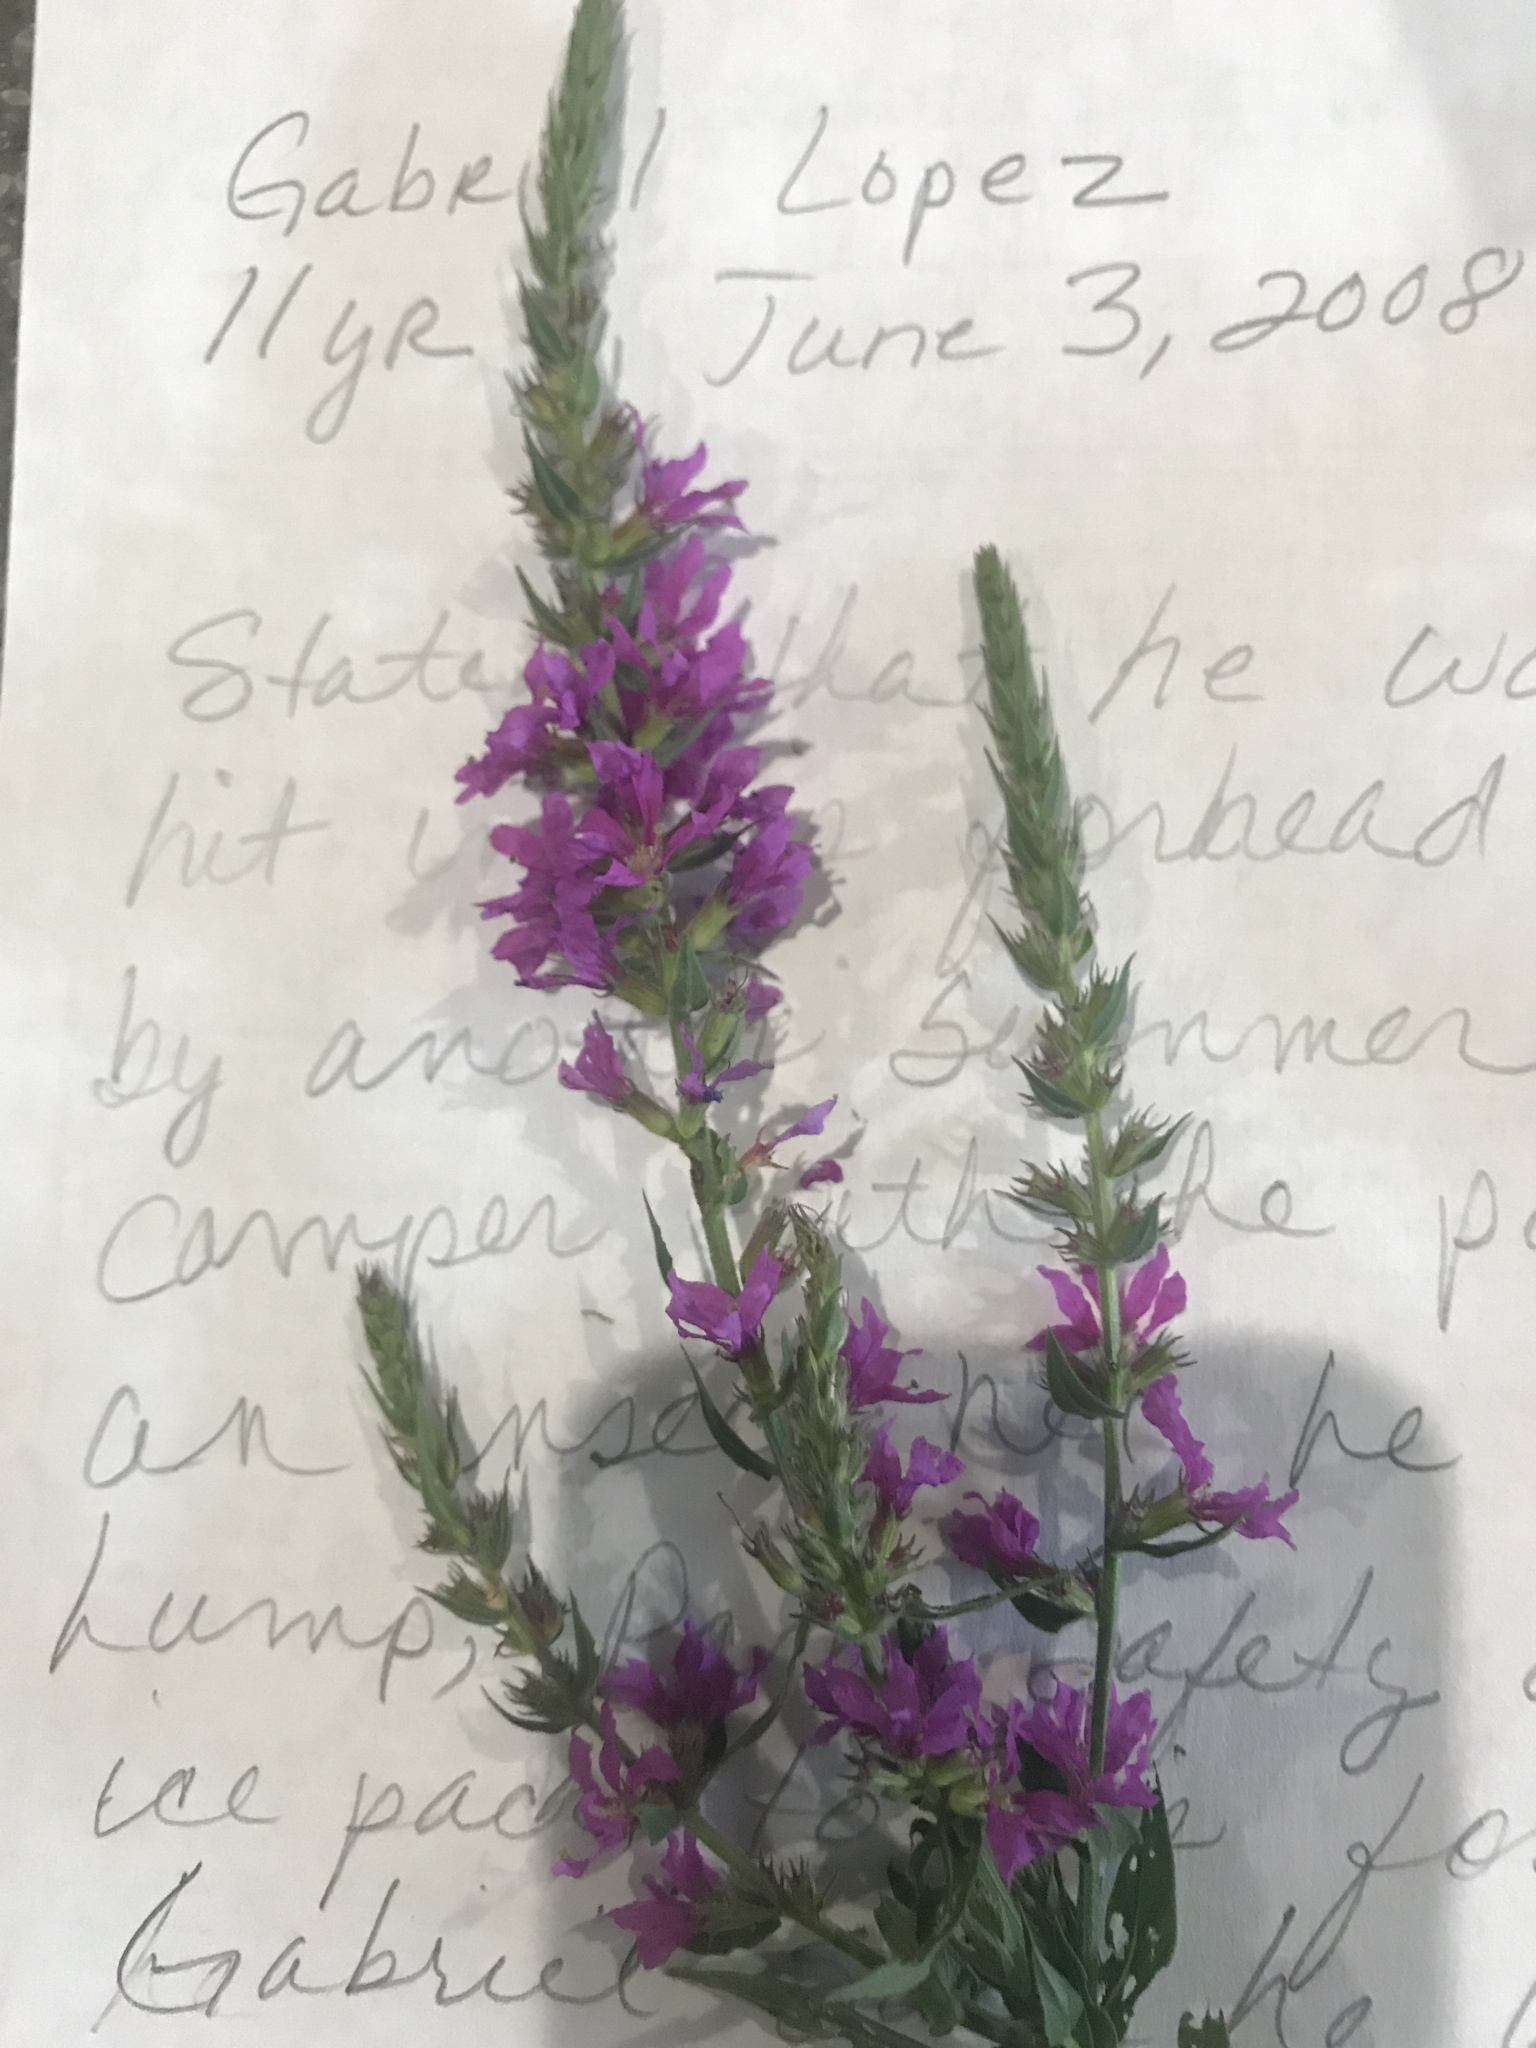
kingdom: Plantae
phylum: Tracheophyta
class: Magnoliopsida
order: Myrtales
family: Lythraceae
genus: Lythrum
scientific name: Lythrum salicaria
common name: Purple loosestrife
